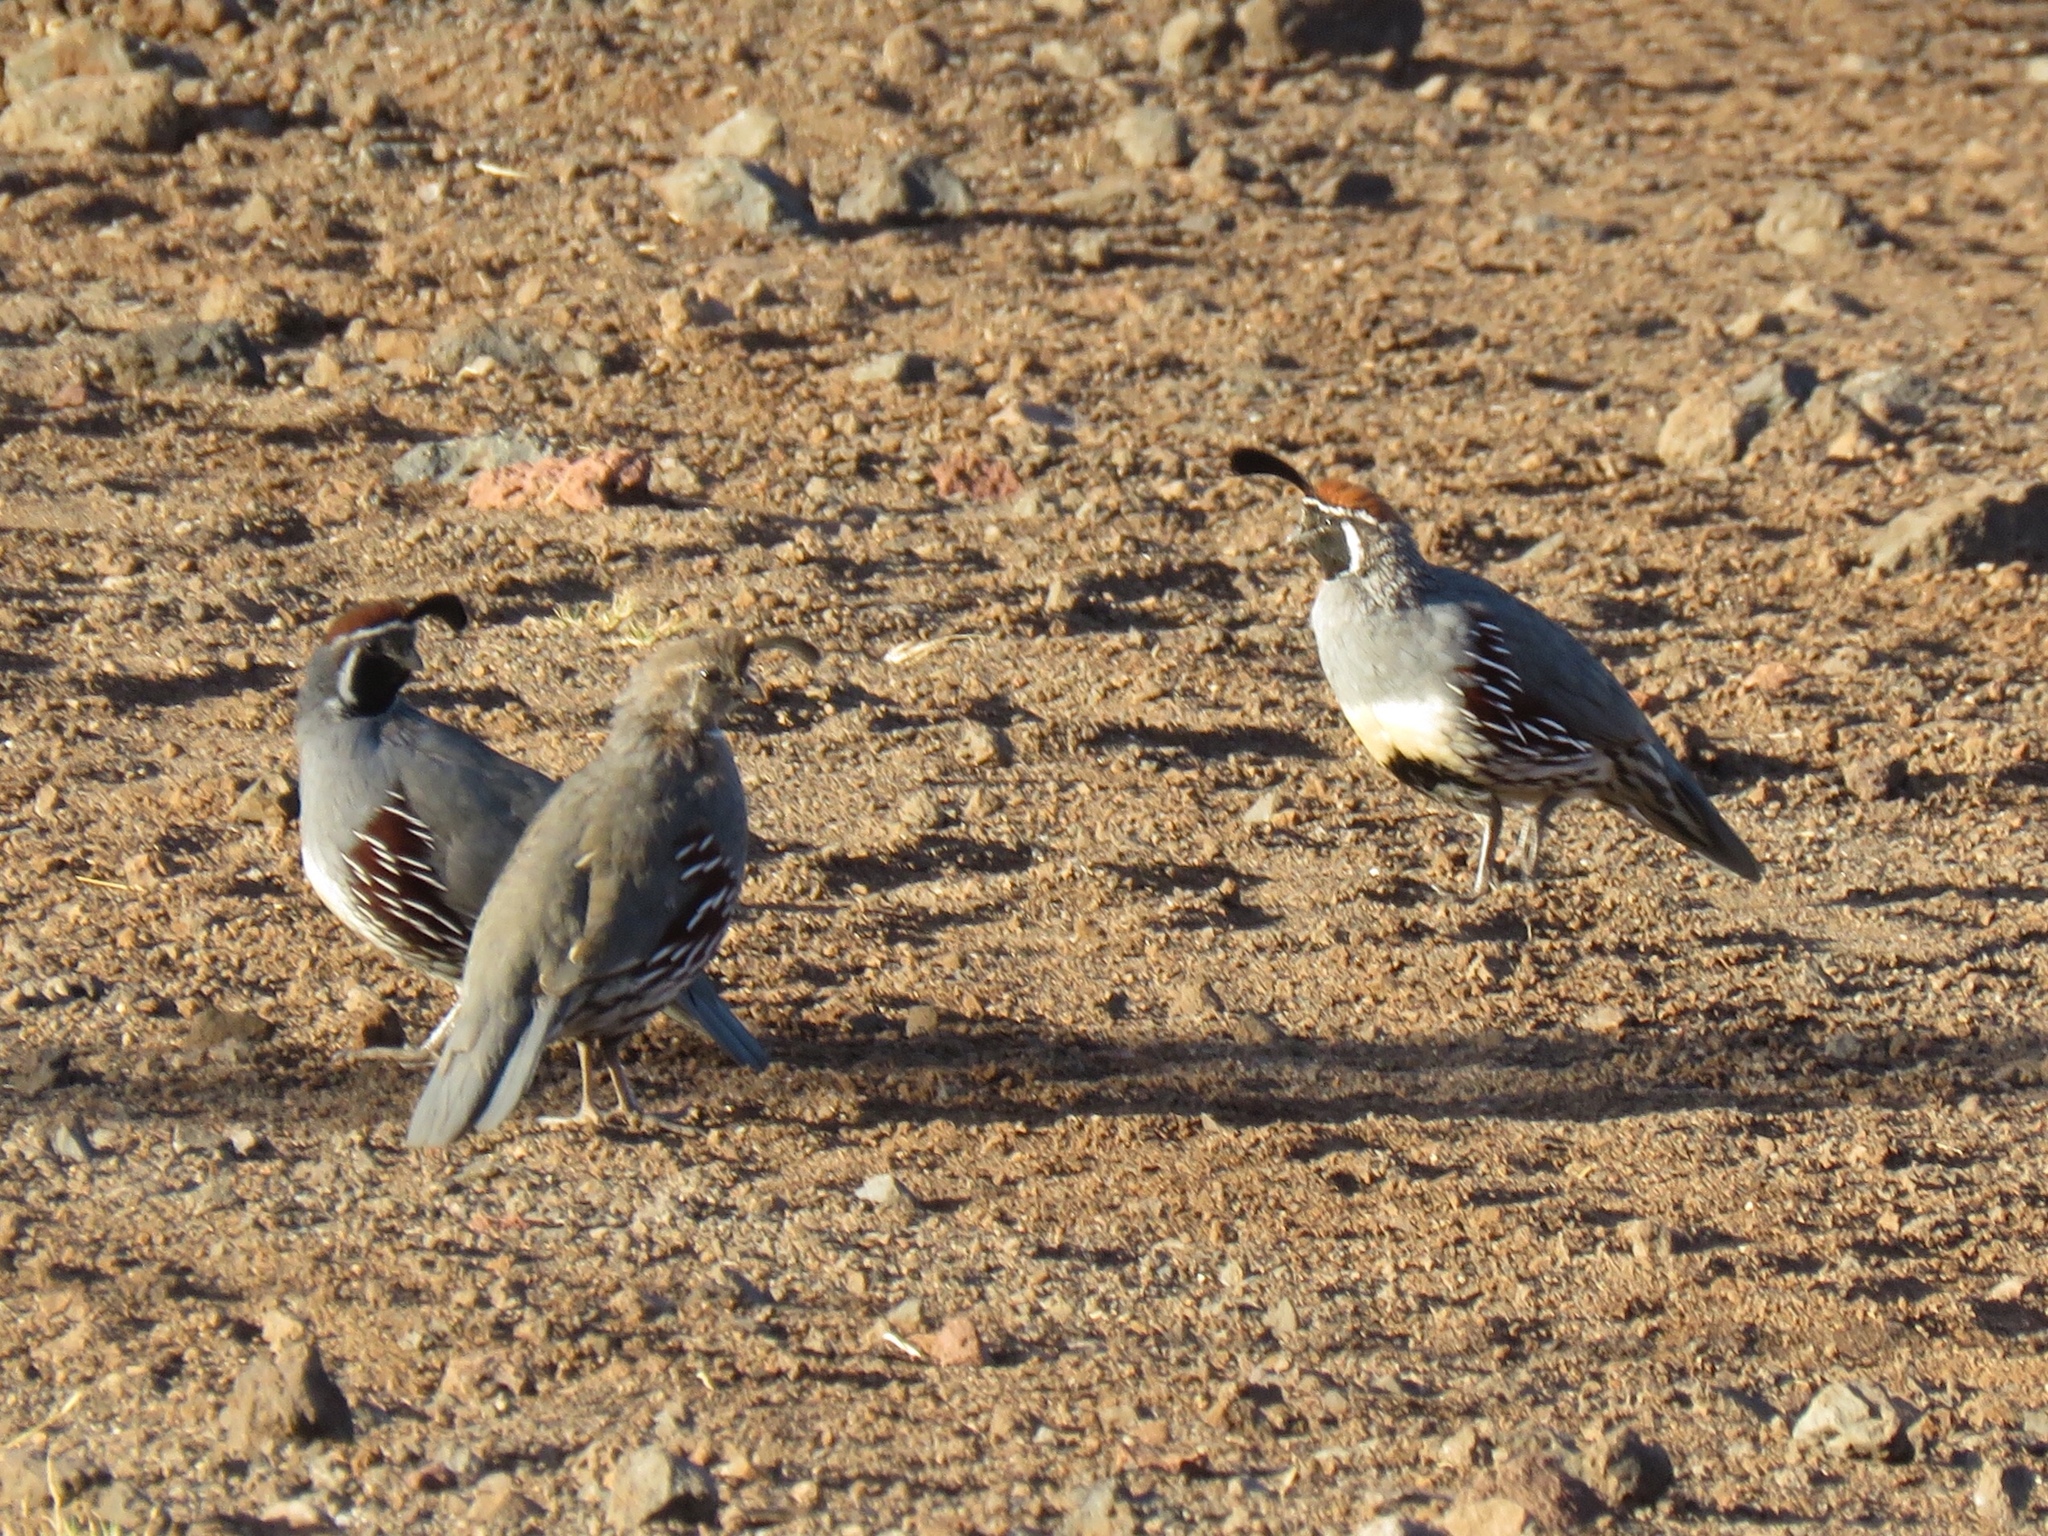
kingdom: Animalia
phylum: Chordata
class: Aves
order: Galliformes
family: Odontophoridae
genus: Callipepla
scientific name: Callipepla gambelii
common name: Gambel's quail
